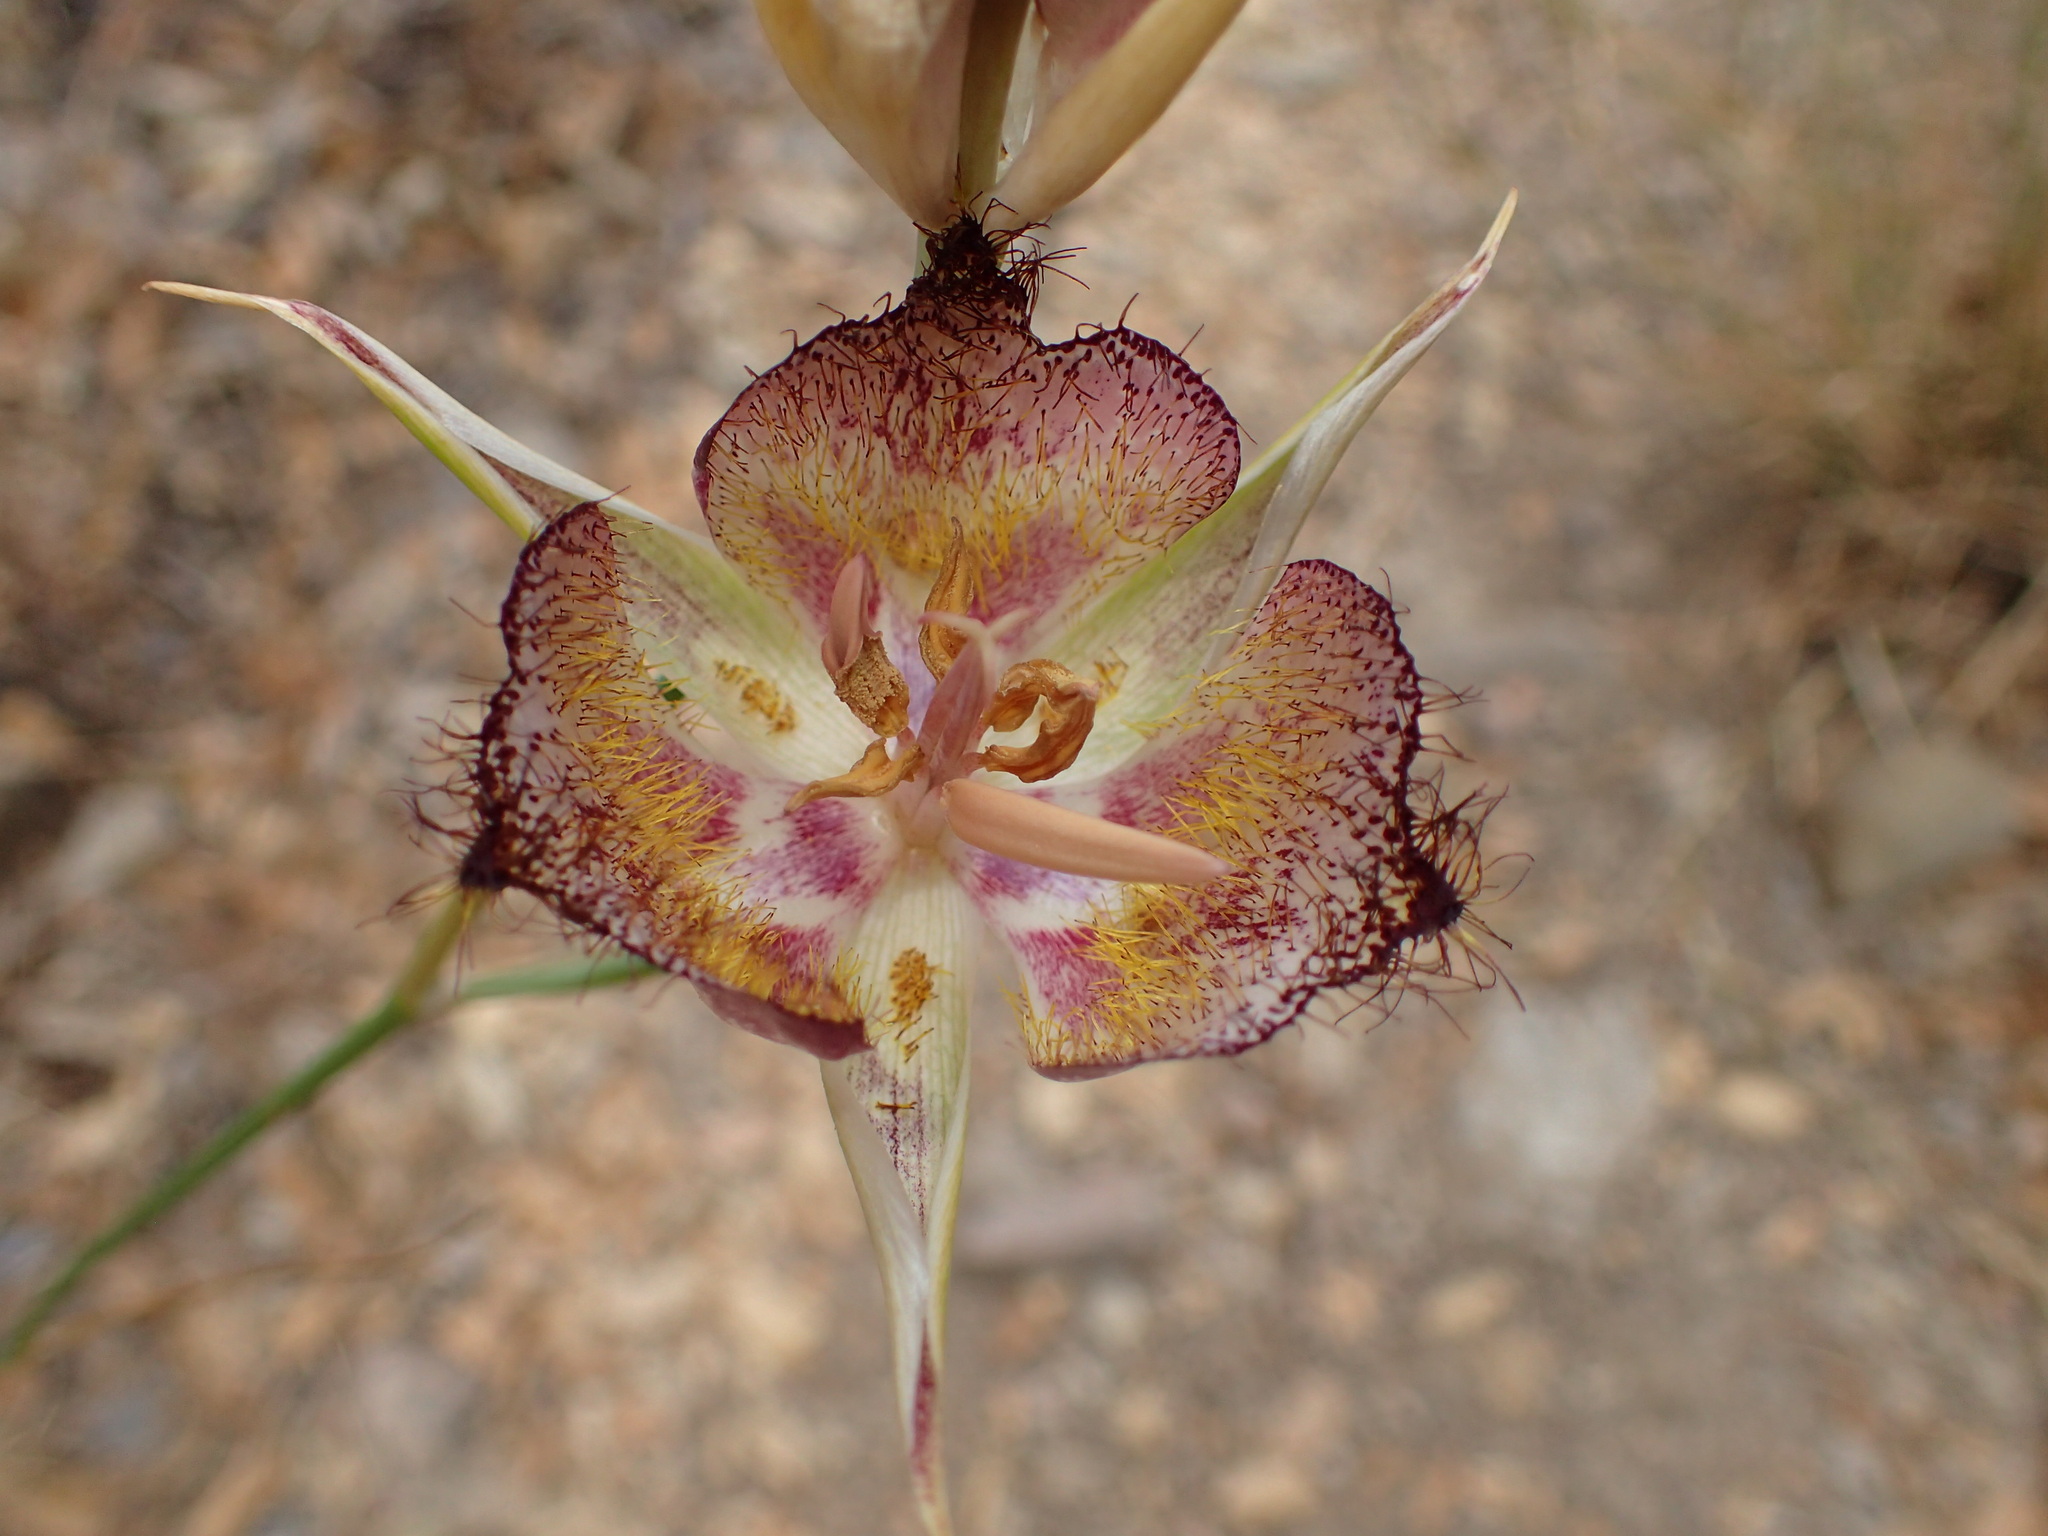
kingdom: Plantae
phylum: Tracheophyta
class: Liliopsida
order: Liliales
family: Liliaceae
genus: Calochortus
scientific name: Calochortus fimbriatus
